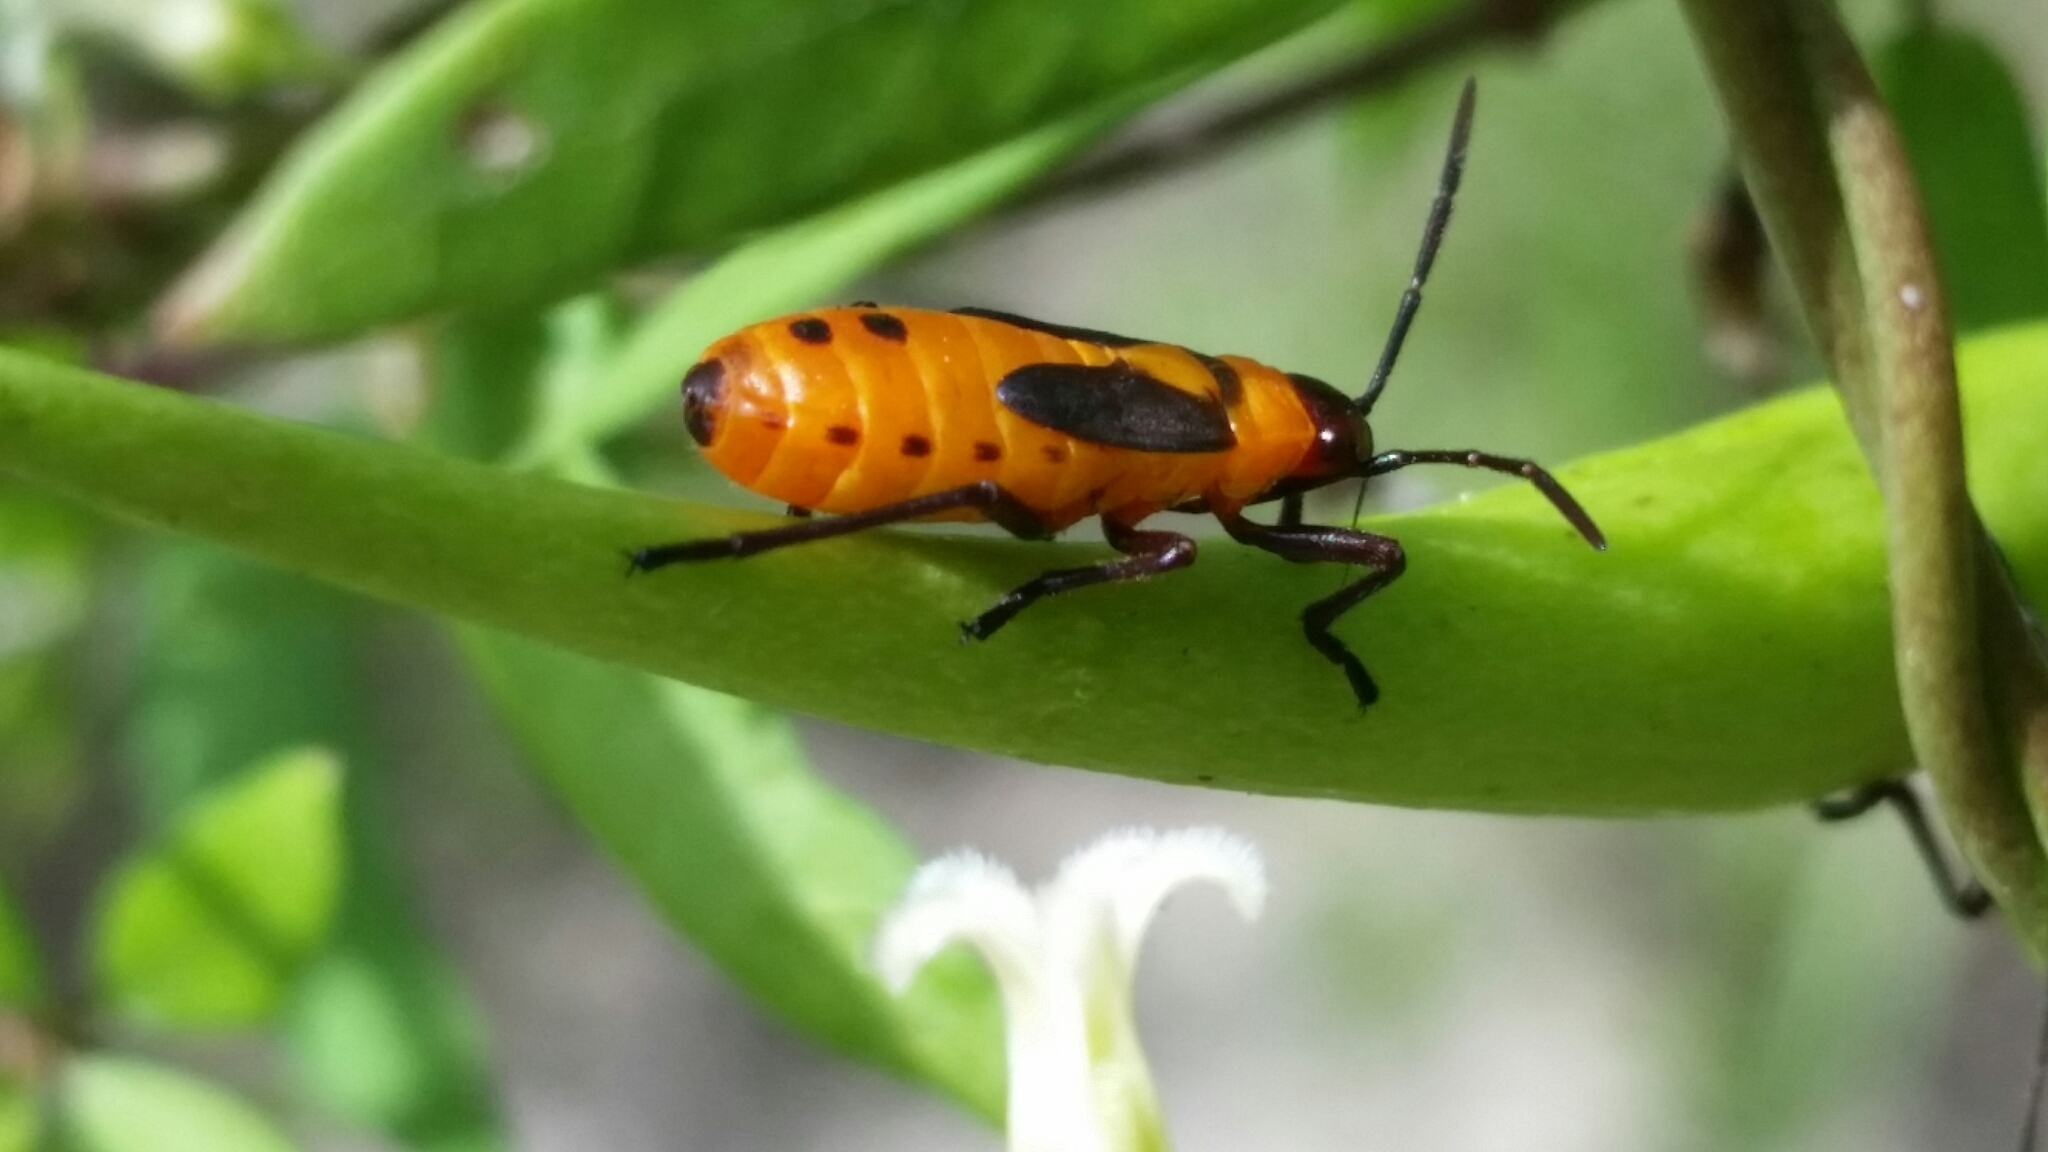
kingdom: Animalia
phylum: Arthropoda
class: Insecta
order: Hemiptera
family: Lygaeidae
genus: Oncopeltus
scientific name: Oncopeltus fasciatus
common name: Large milkweed bug
